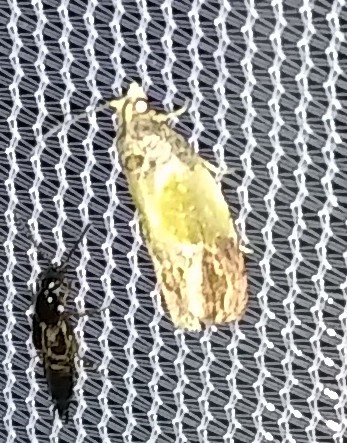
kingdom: Animalia
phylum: Arthropoda
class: Insecta
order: Lepidoptera
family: Tortricidae
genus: Eumarozia
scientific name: Eumarozia malachitana
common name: Sculptured moth
